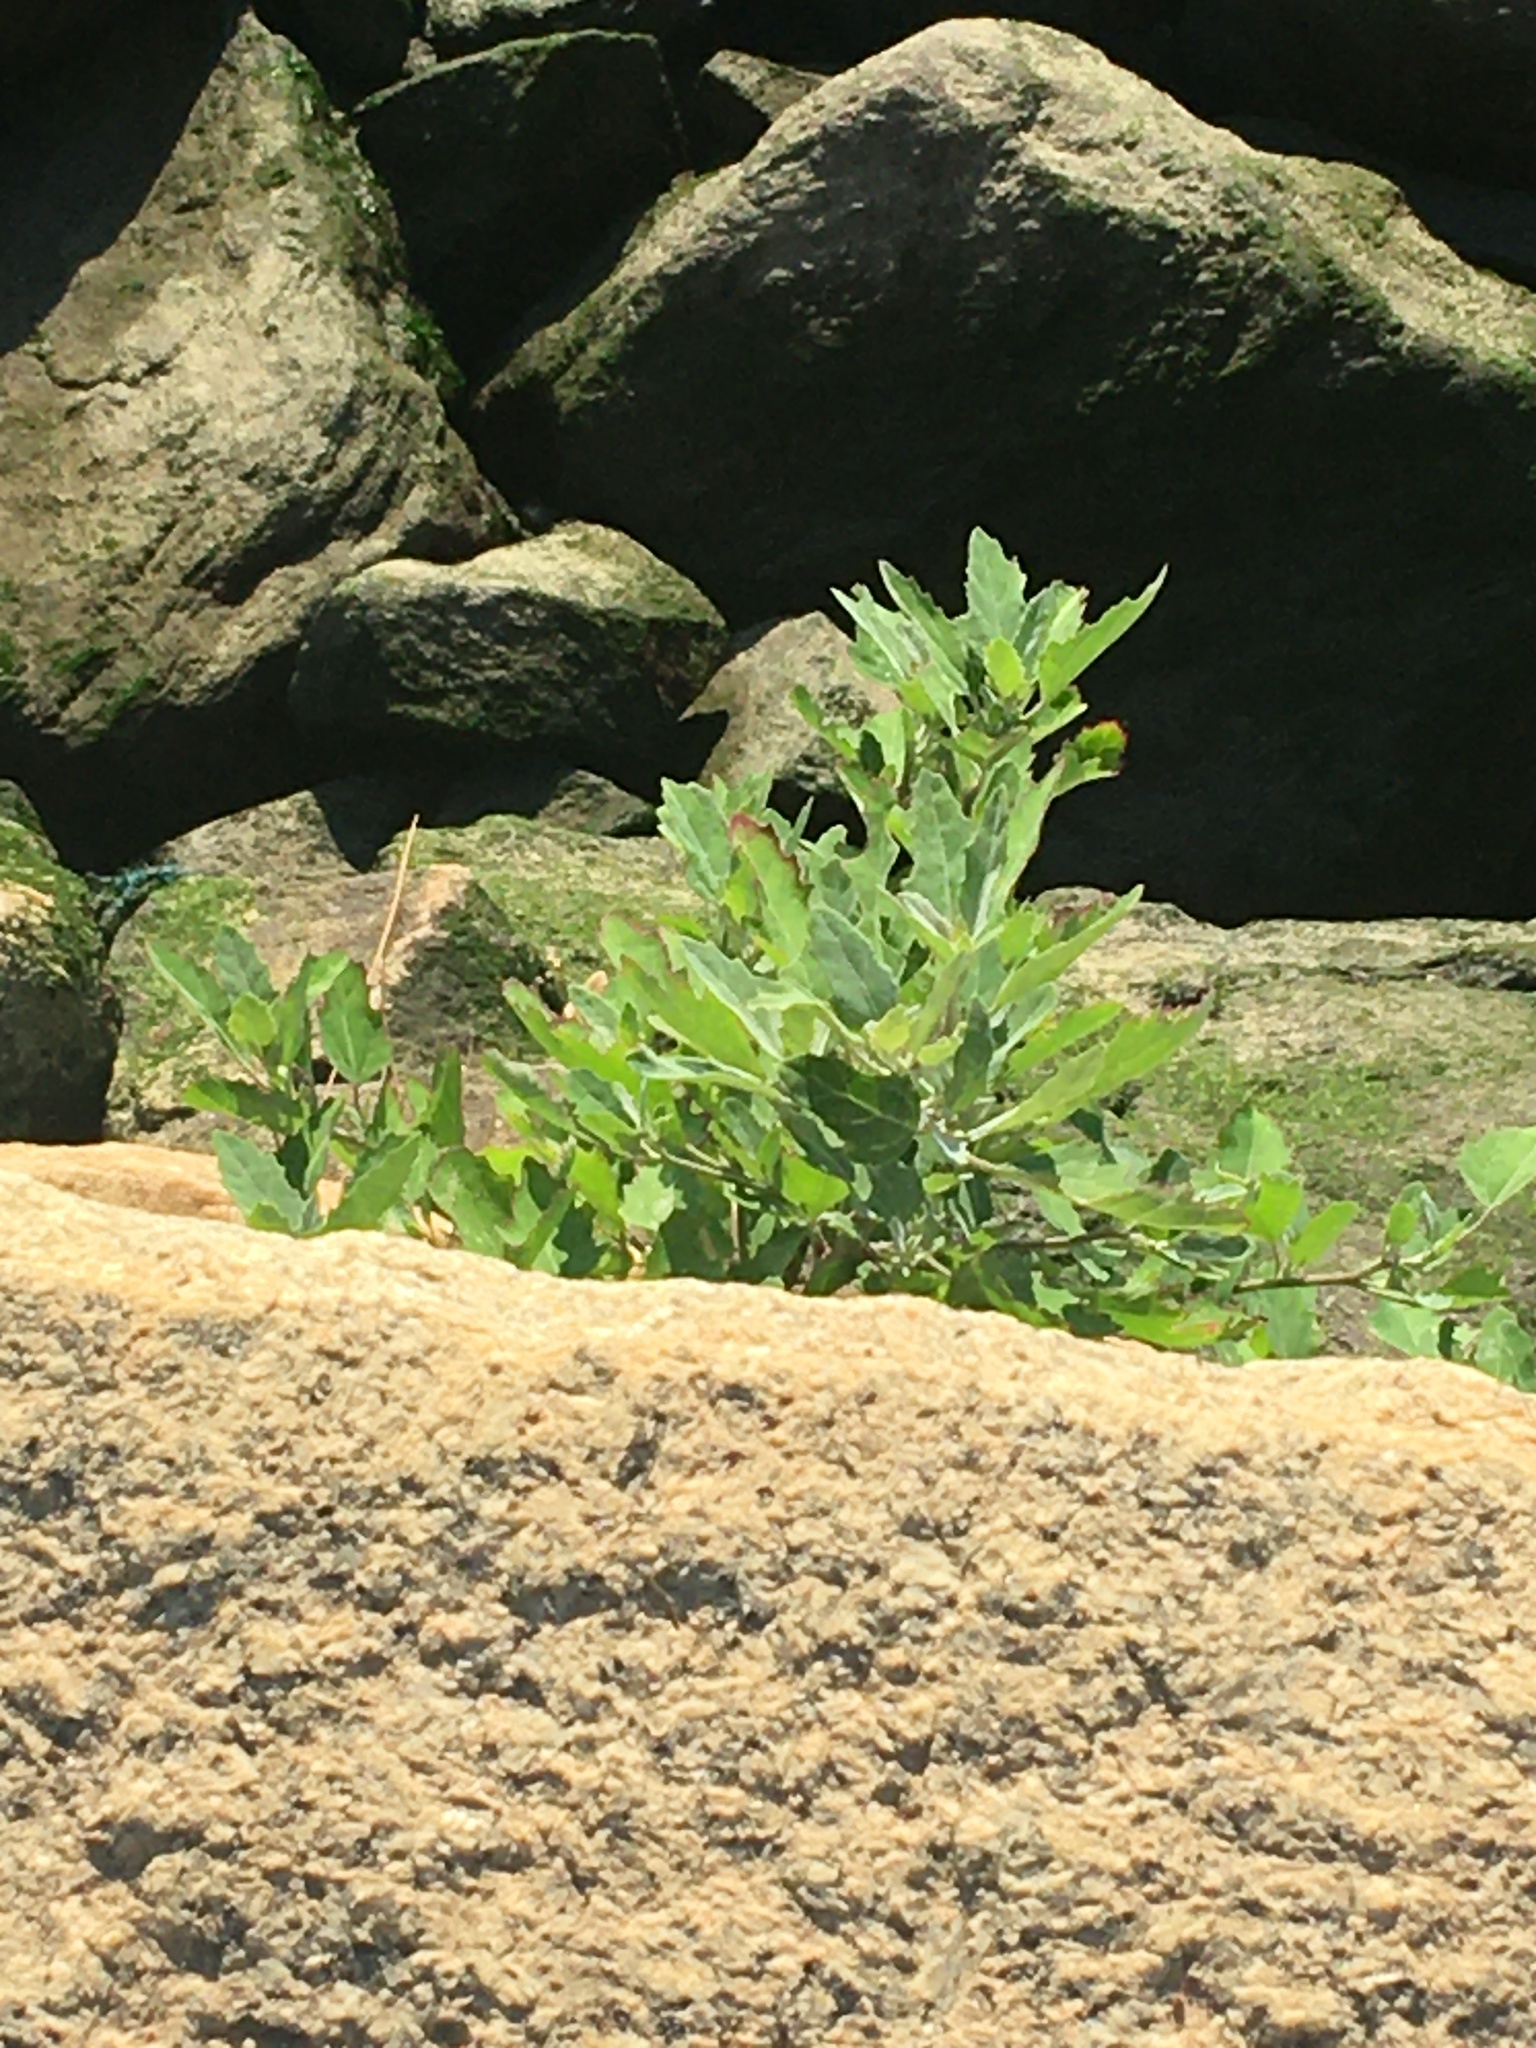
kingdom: Plantae
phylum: Tracheophyta
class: Magnoliopsida
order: Caryophyllales
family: Amaranthaceae
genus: Chenopodium
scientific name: Chenopodium album
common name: Fat-hen
